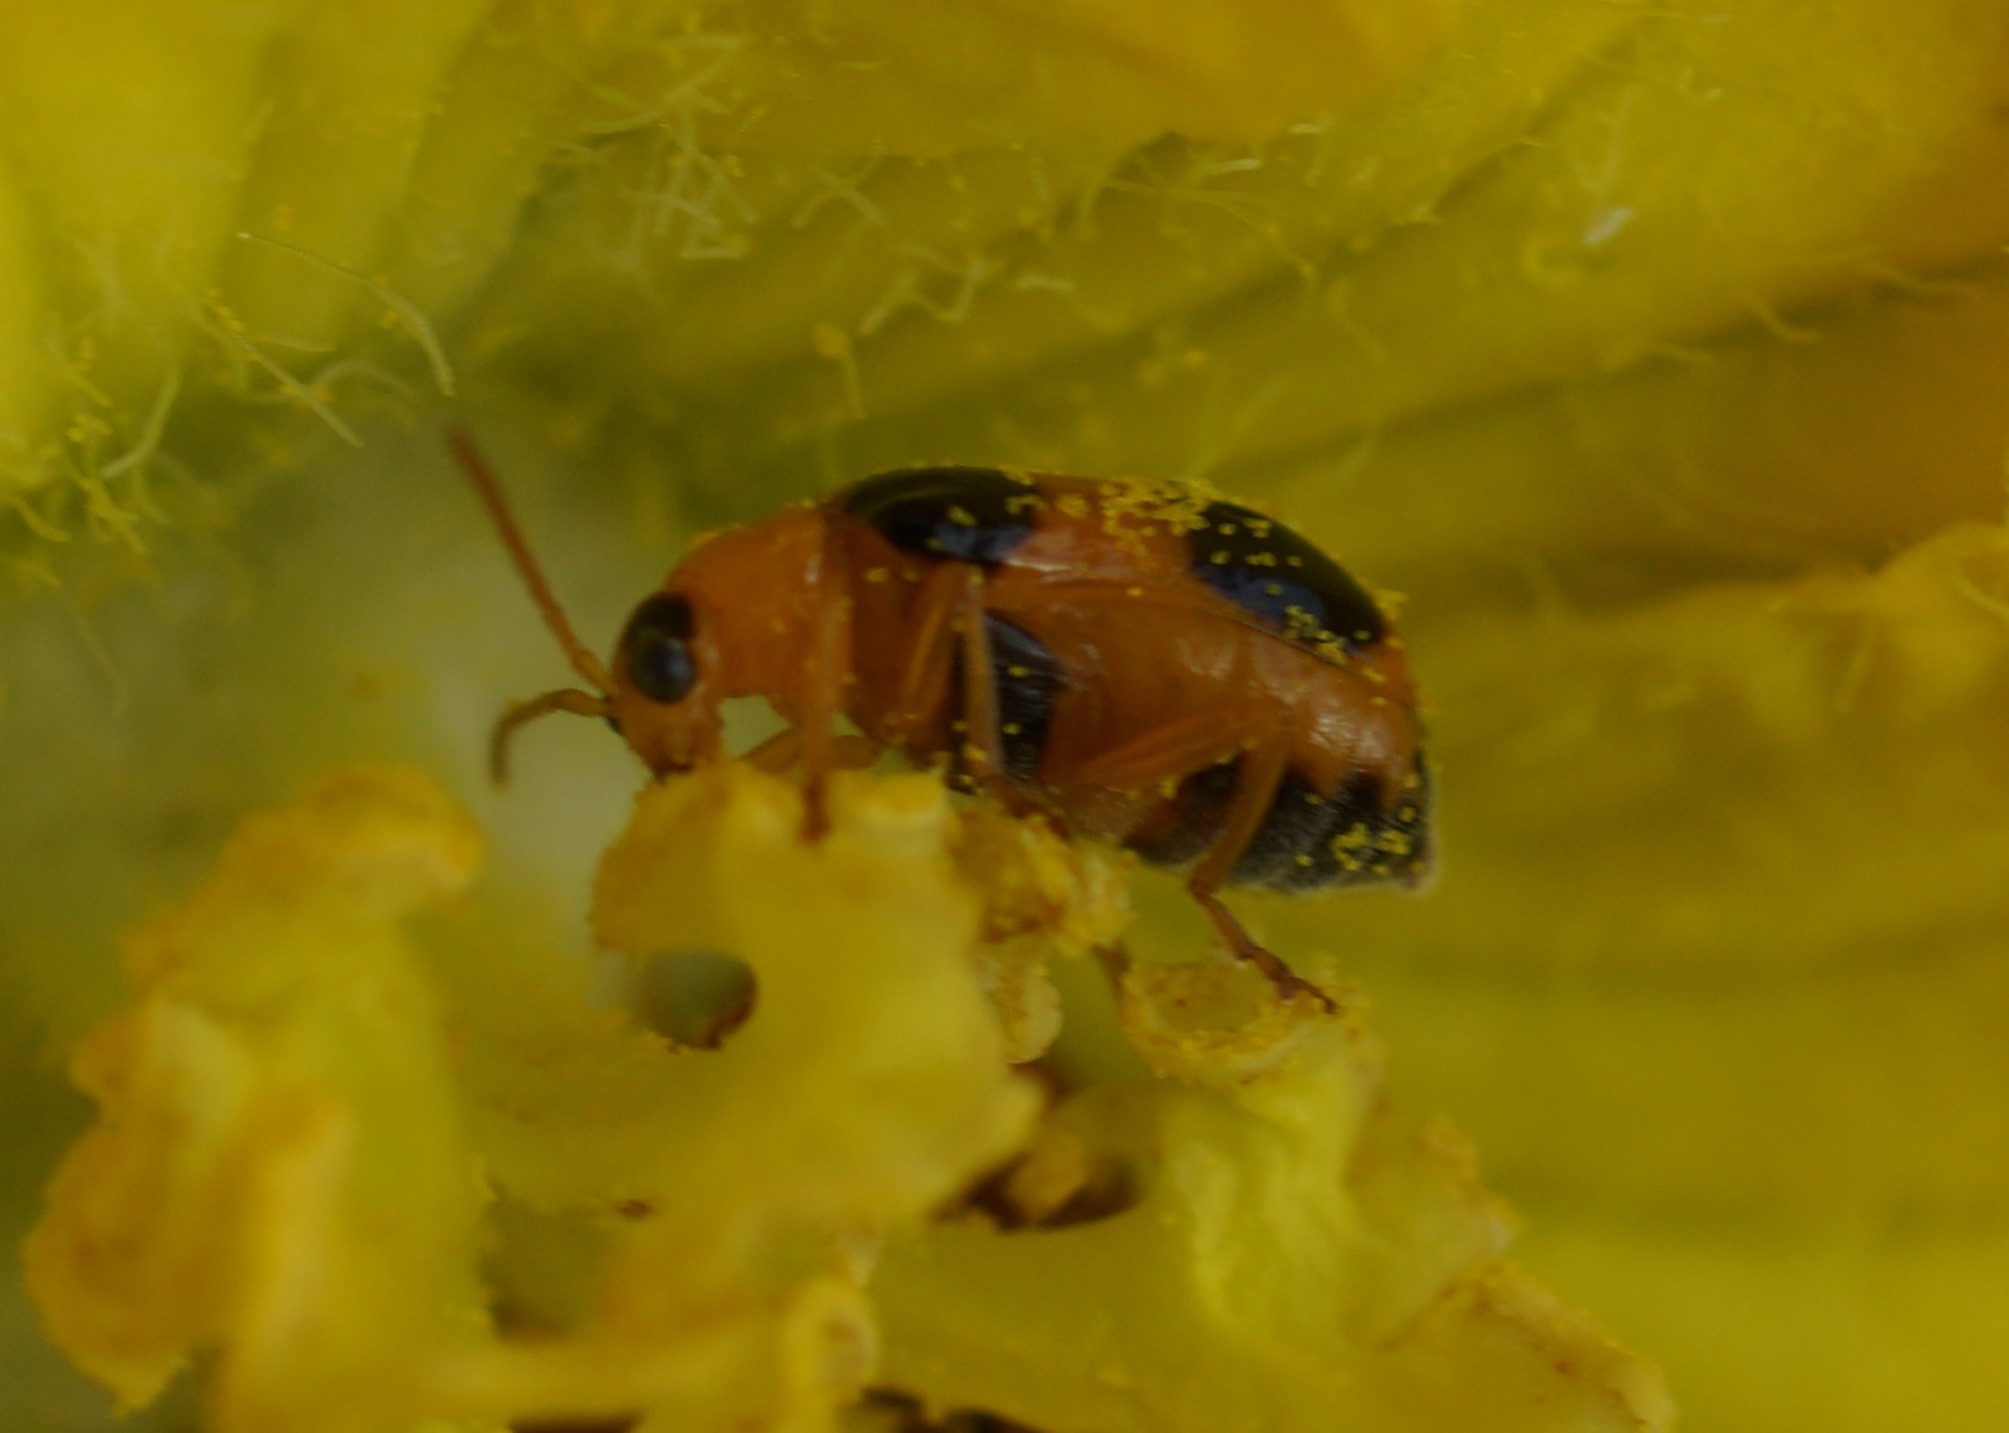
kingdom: Animalia
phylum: Arthropoda
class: Insecta
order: Coleoptera
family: Chrysomelidae
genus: Aulacophora
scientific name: Aulacophora quadrimaculata
